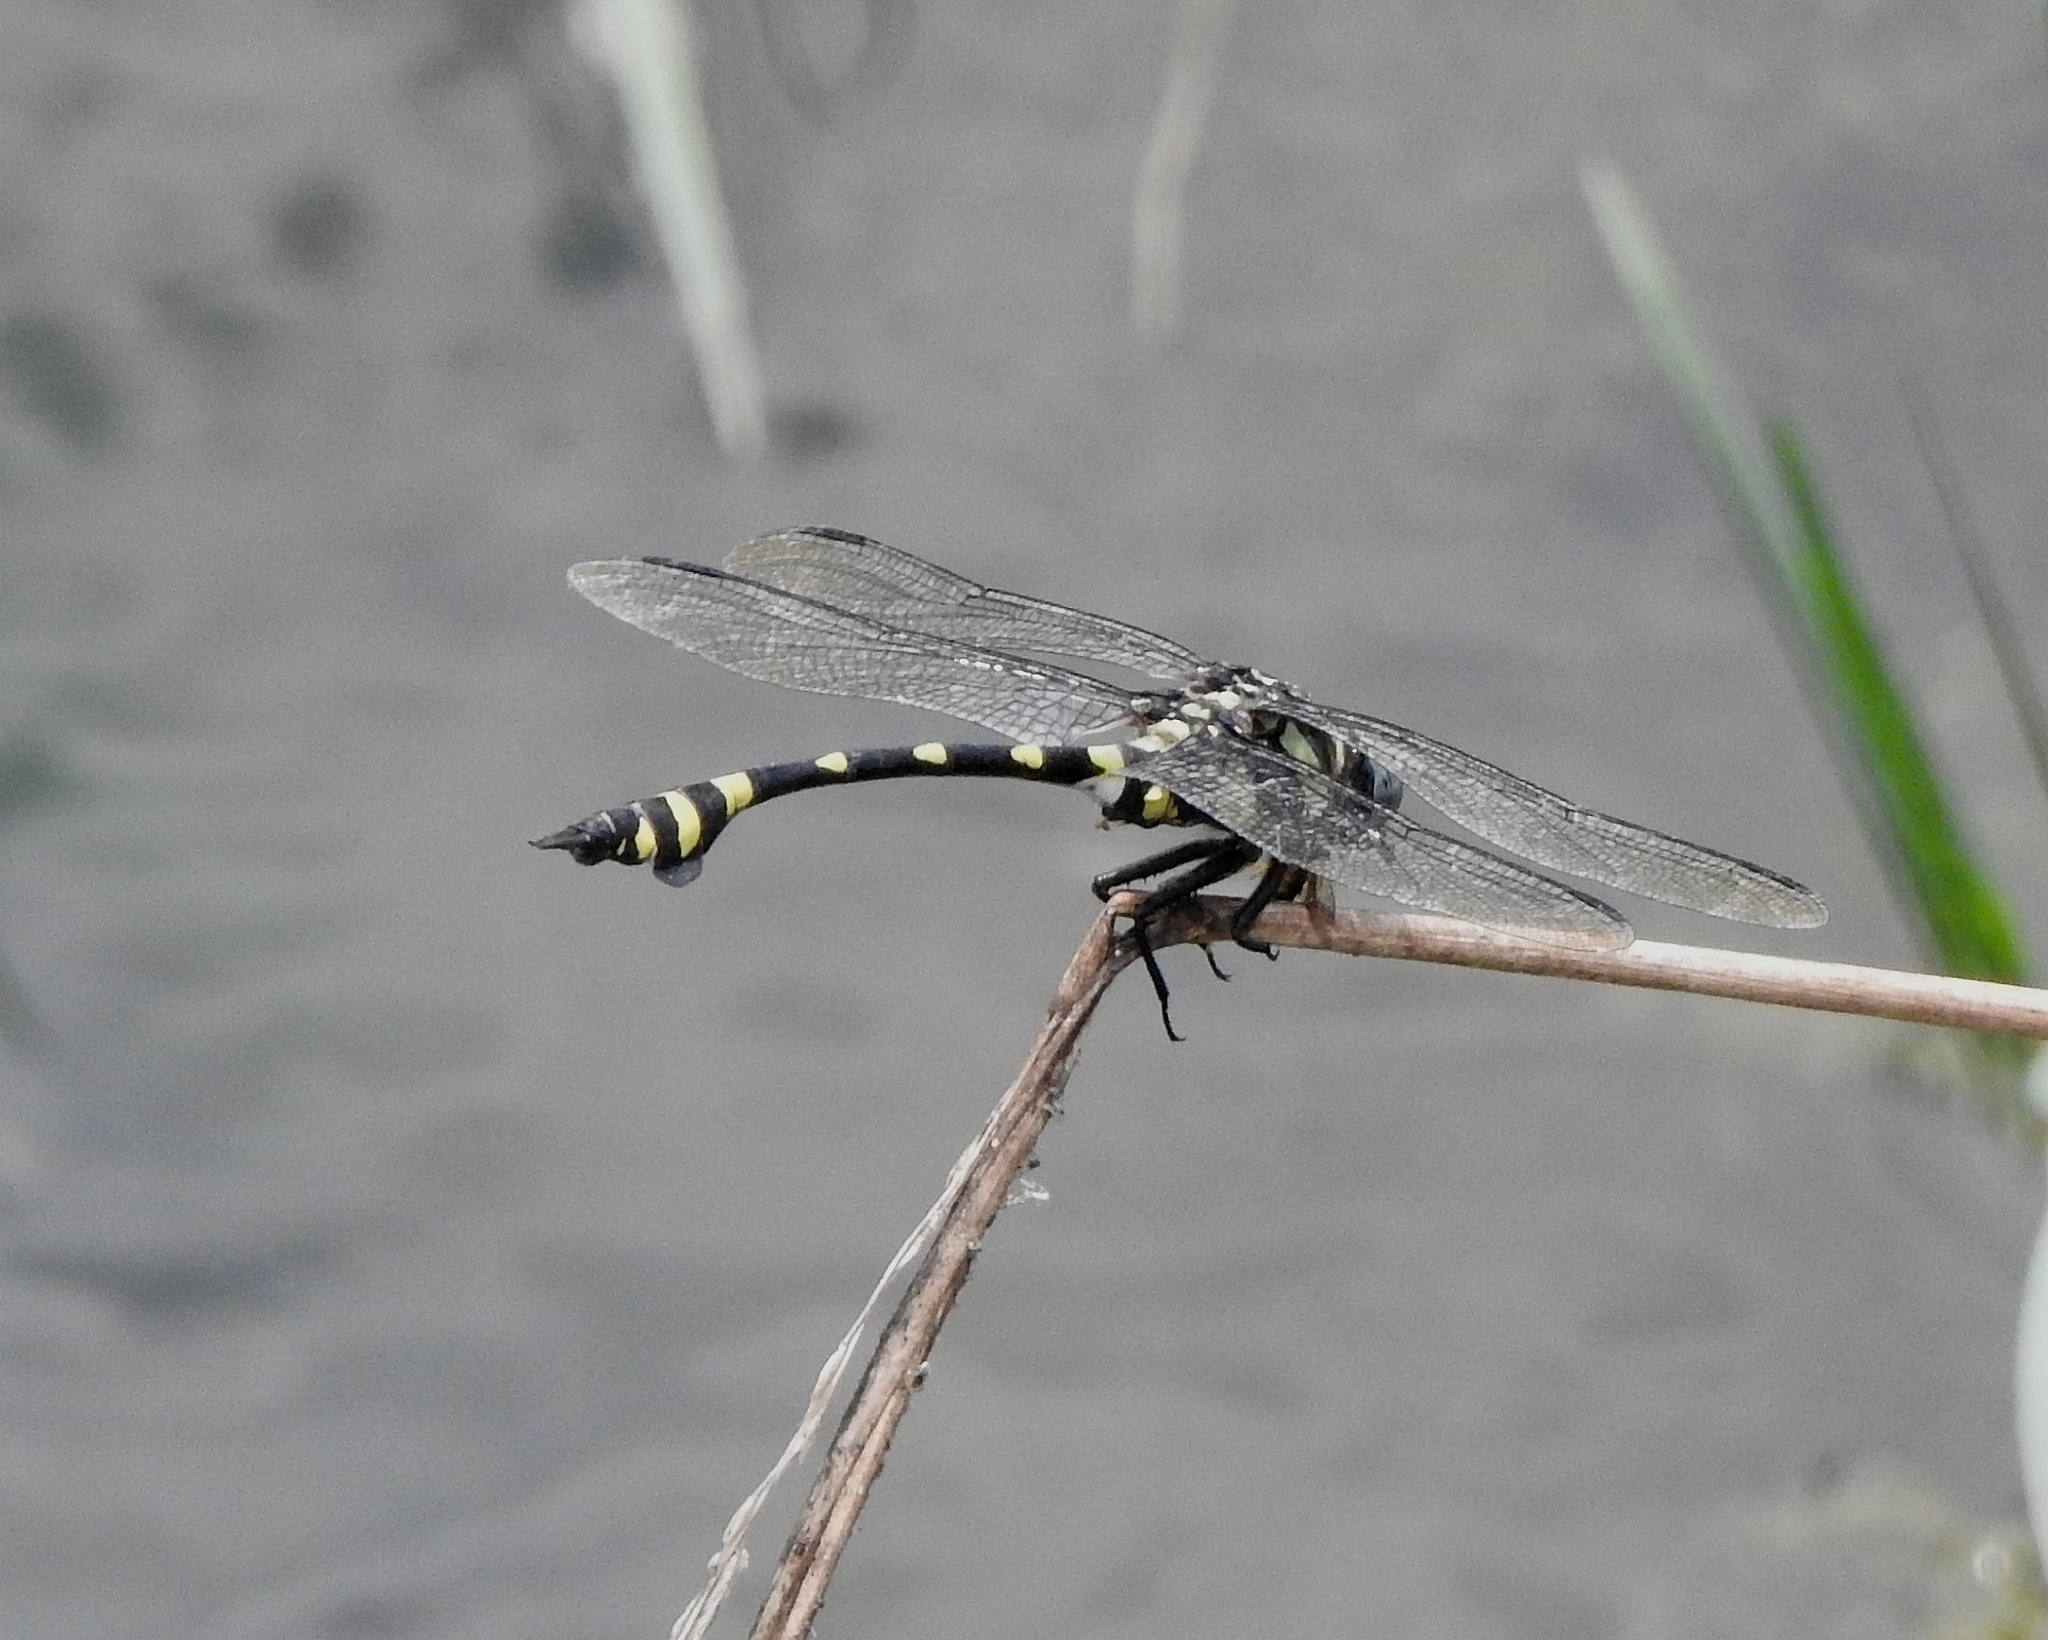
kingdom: Animalia
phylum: Arthropoda
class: Insecta
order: Odonata
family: Gomphidae
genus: Ictinogomphus
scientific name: Ictinogomphus rapax
